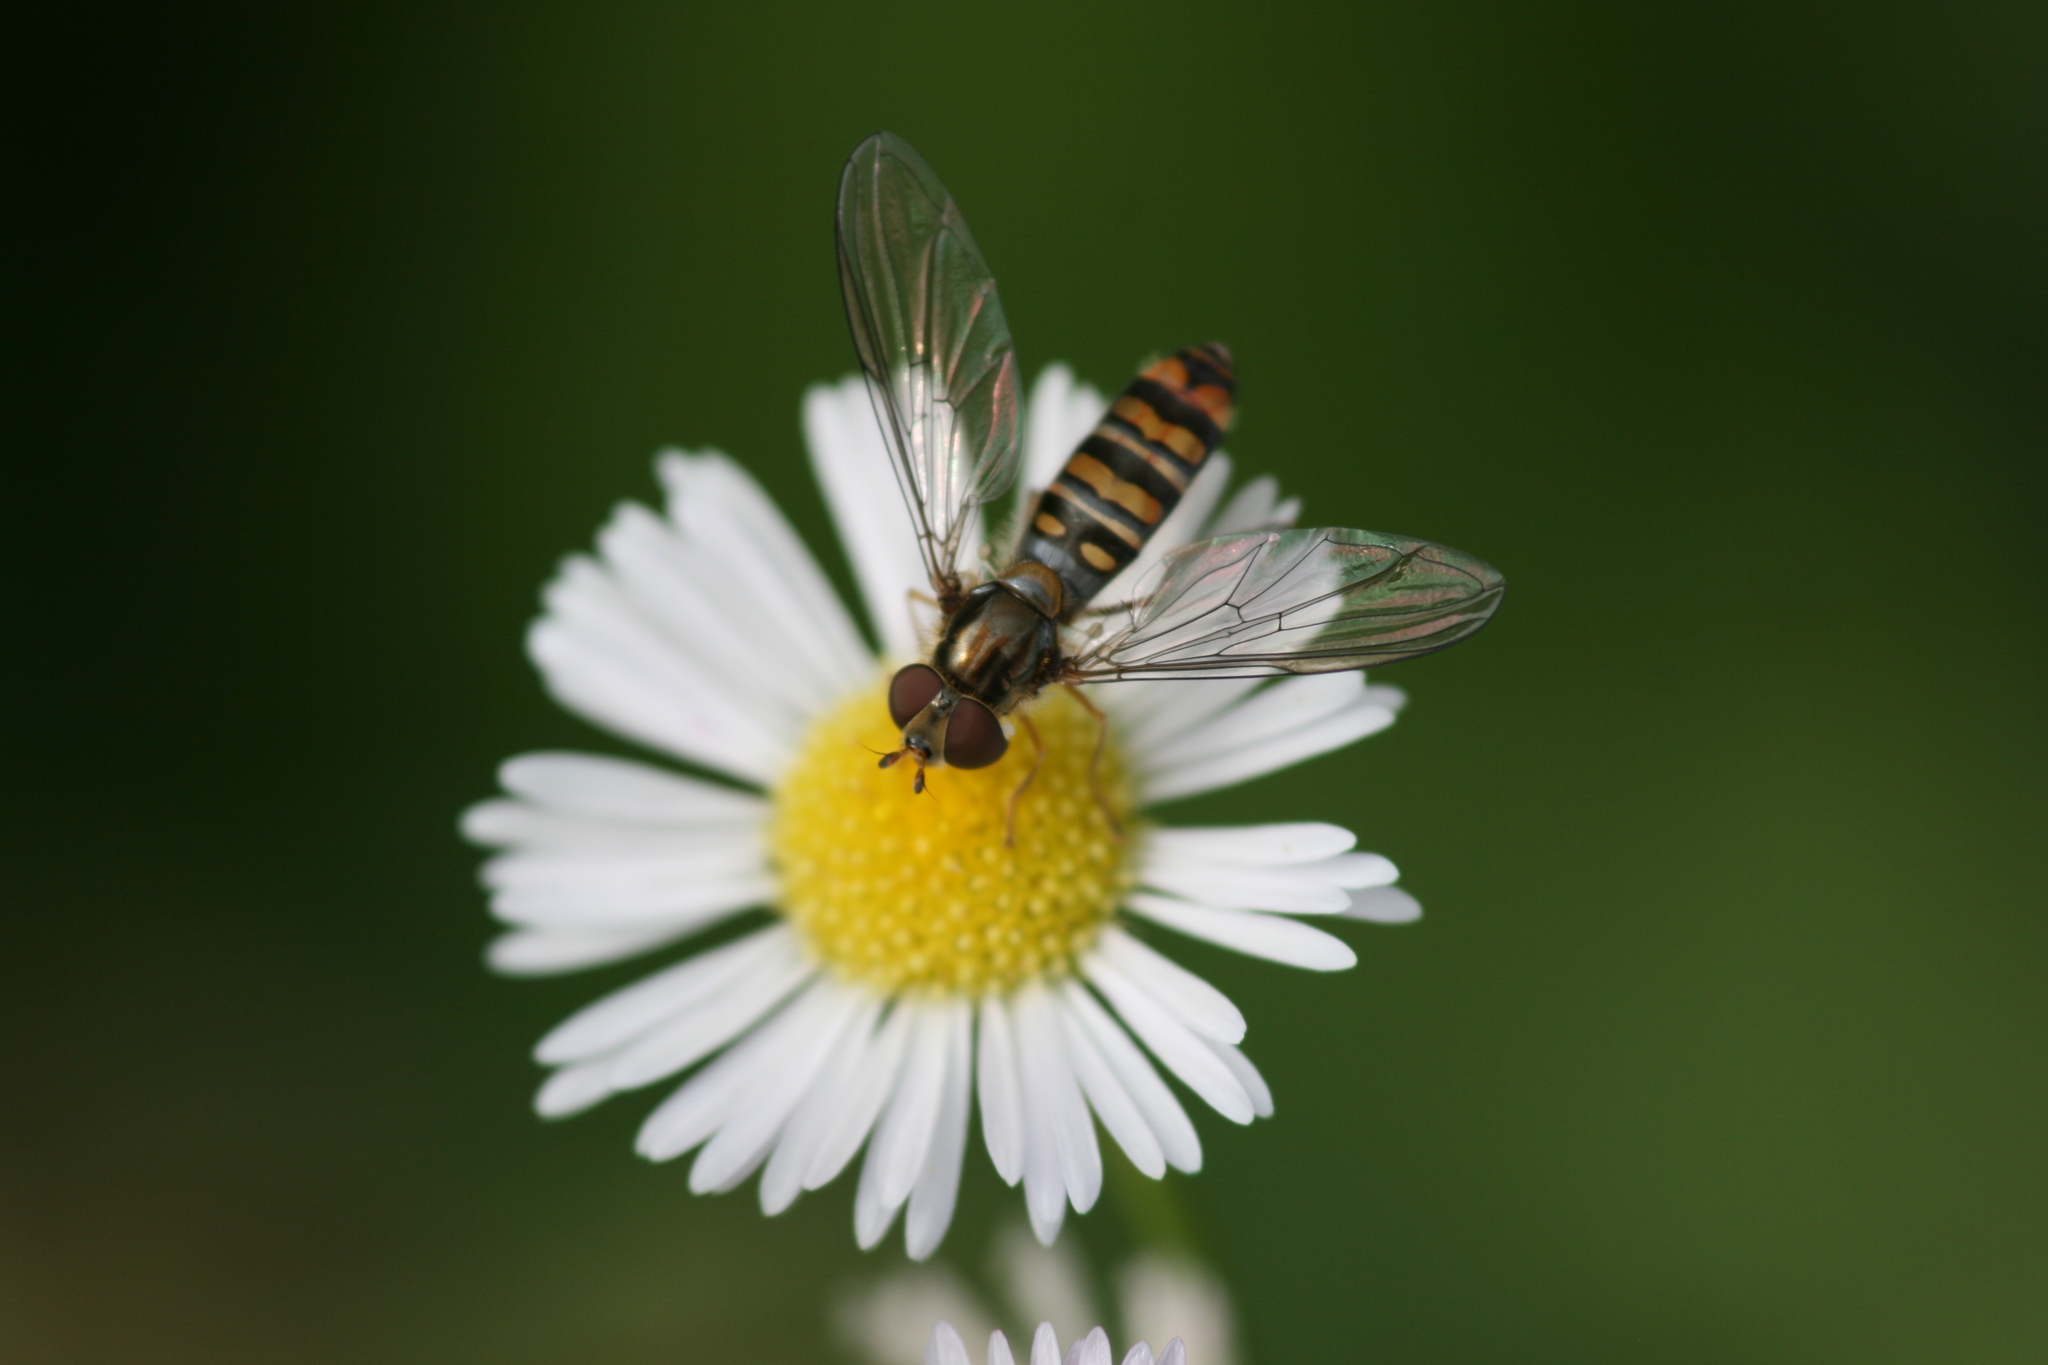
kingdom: Animalia
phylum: Arthropoda
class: Insecta
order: Diptera
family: Syrphidae
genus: Episyrphus
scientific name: Episyrphus balteatus
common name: Marmalade hoverfly
